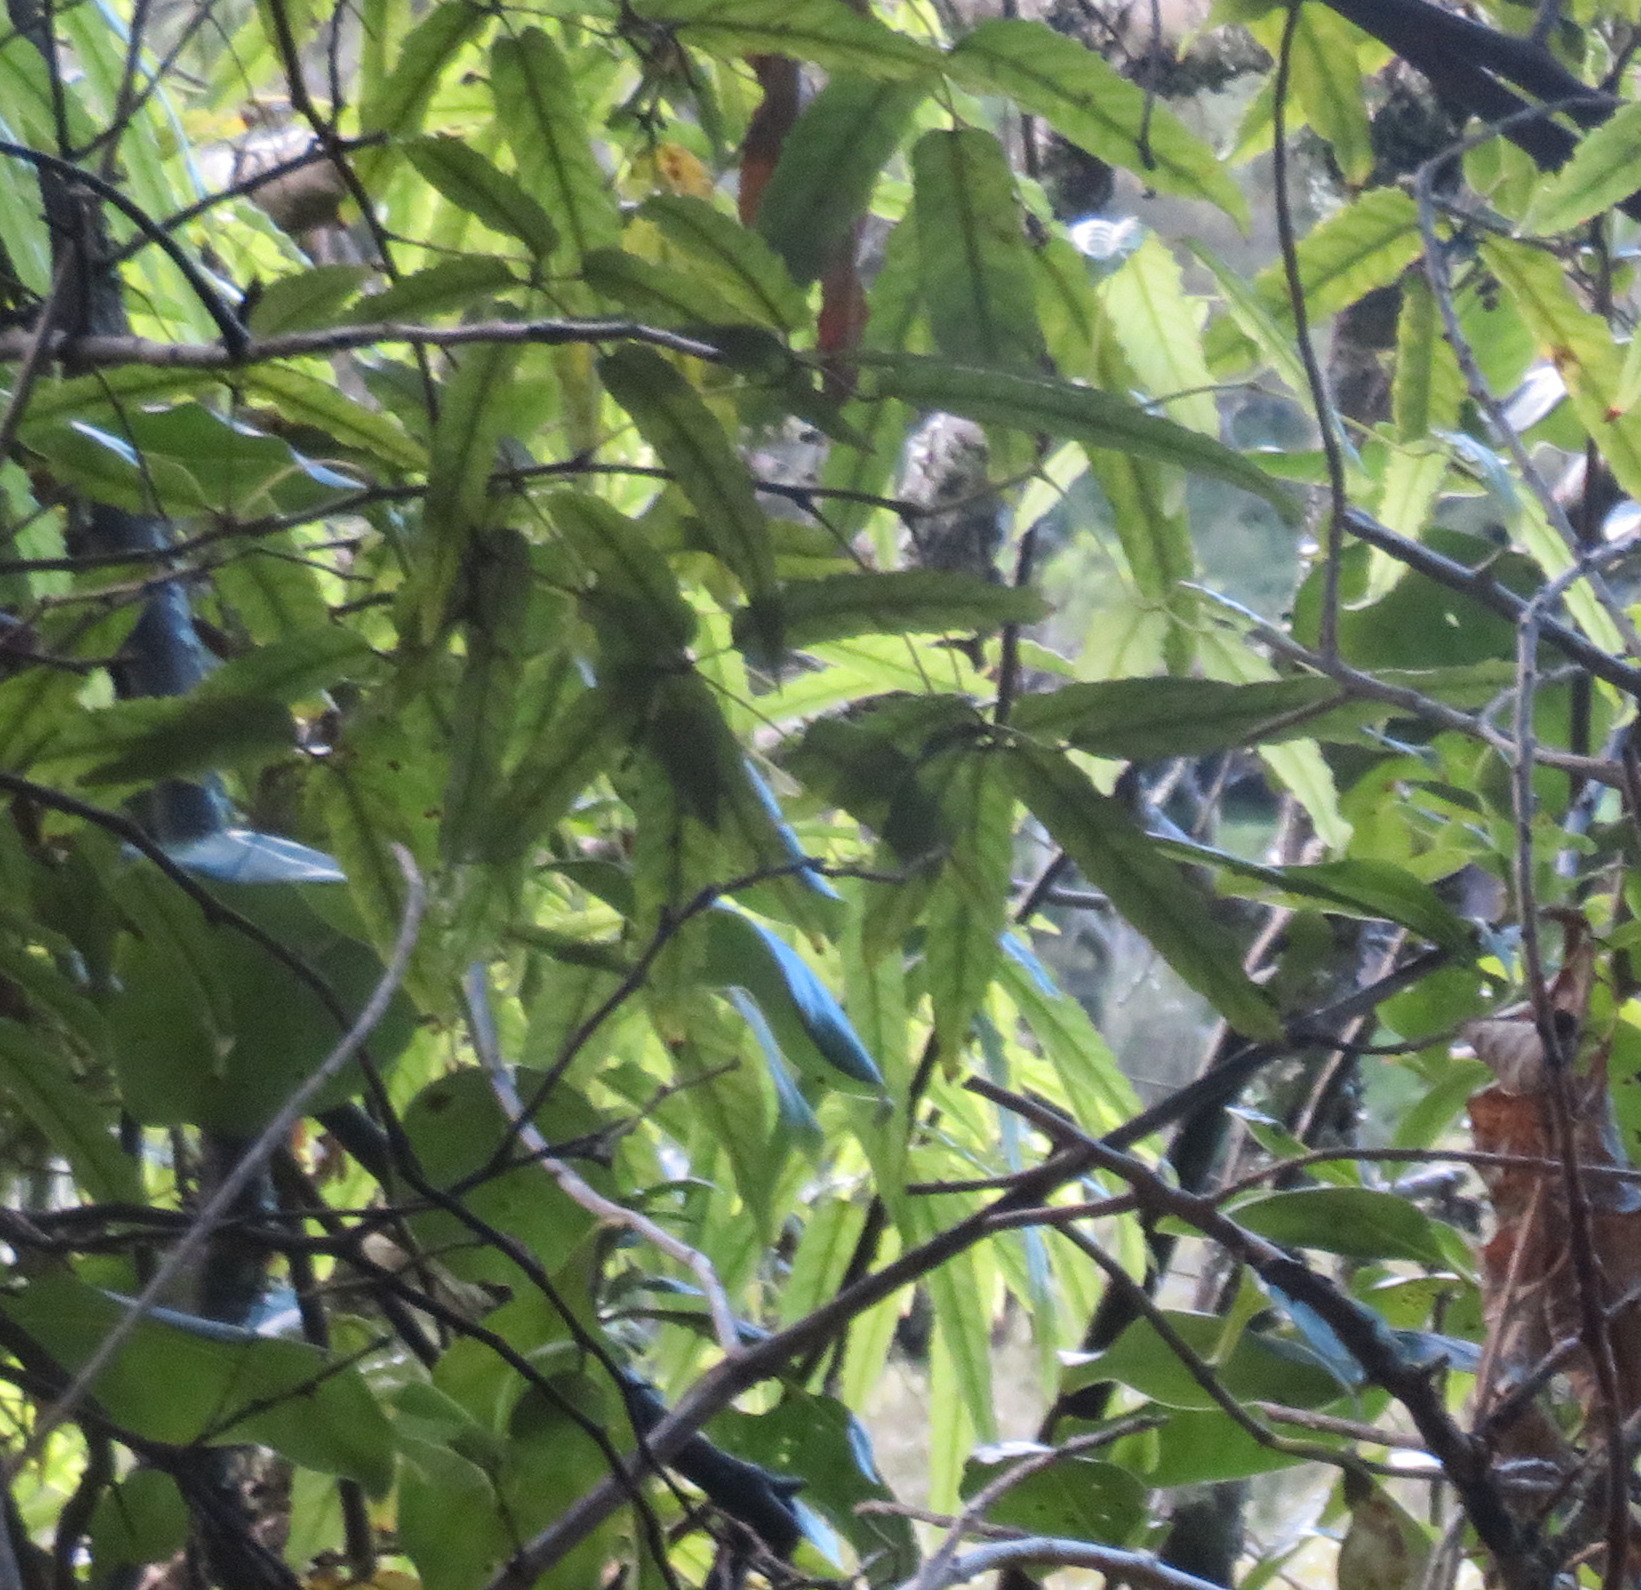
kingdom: Plantae
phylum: Tracheophyta
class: Magnoliopsida
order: Rosales
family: Rosaceae
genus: Rubus
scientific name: Rubus cissoides
